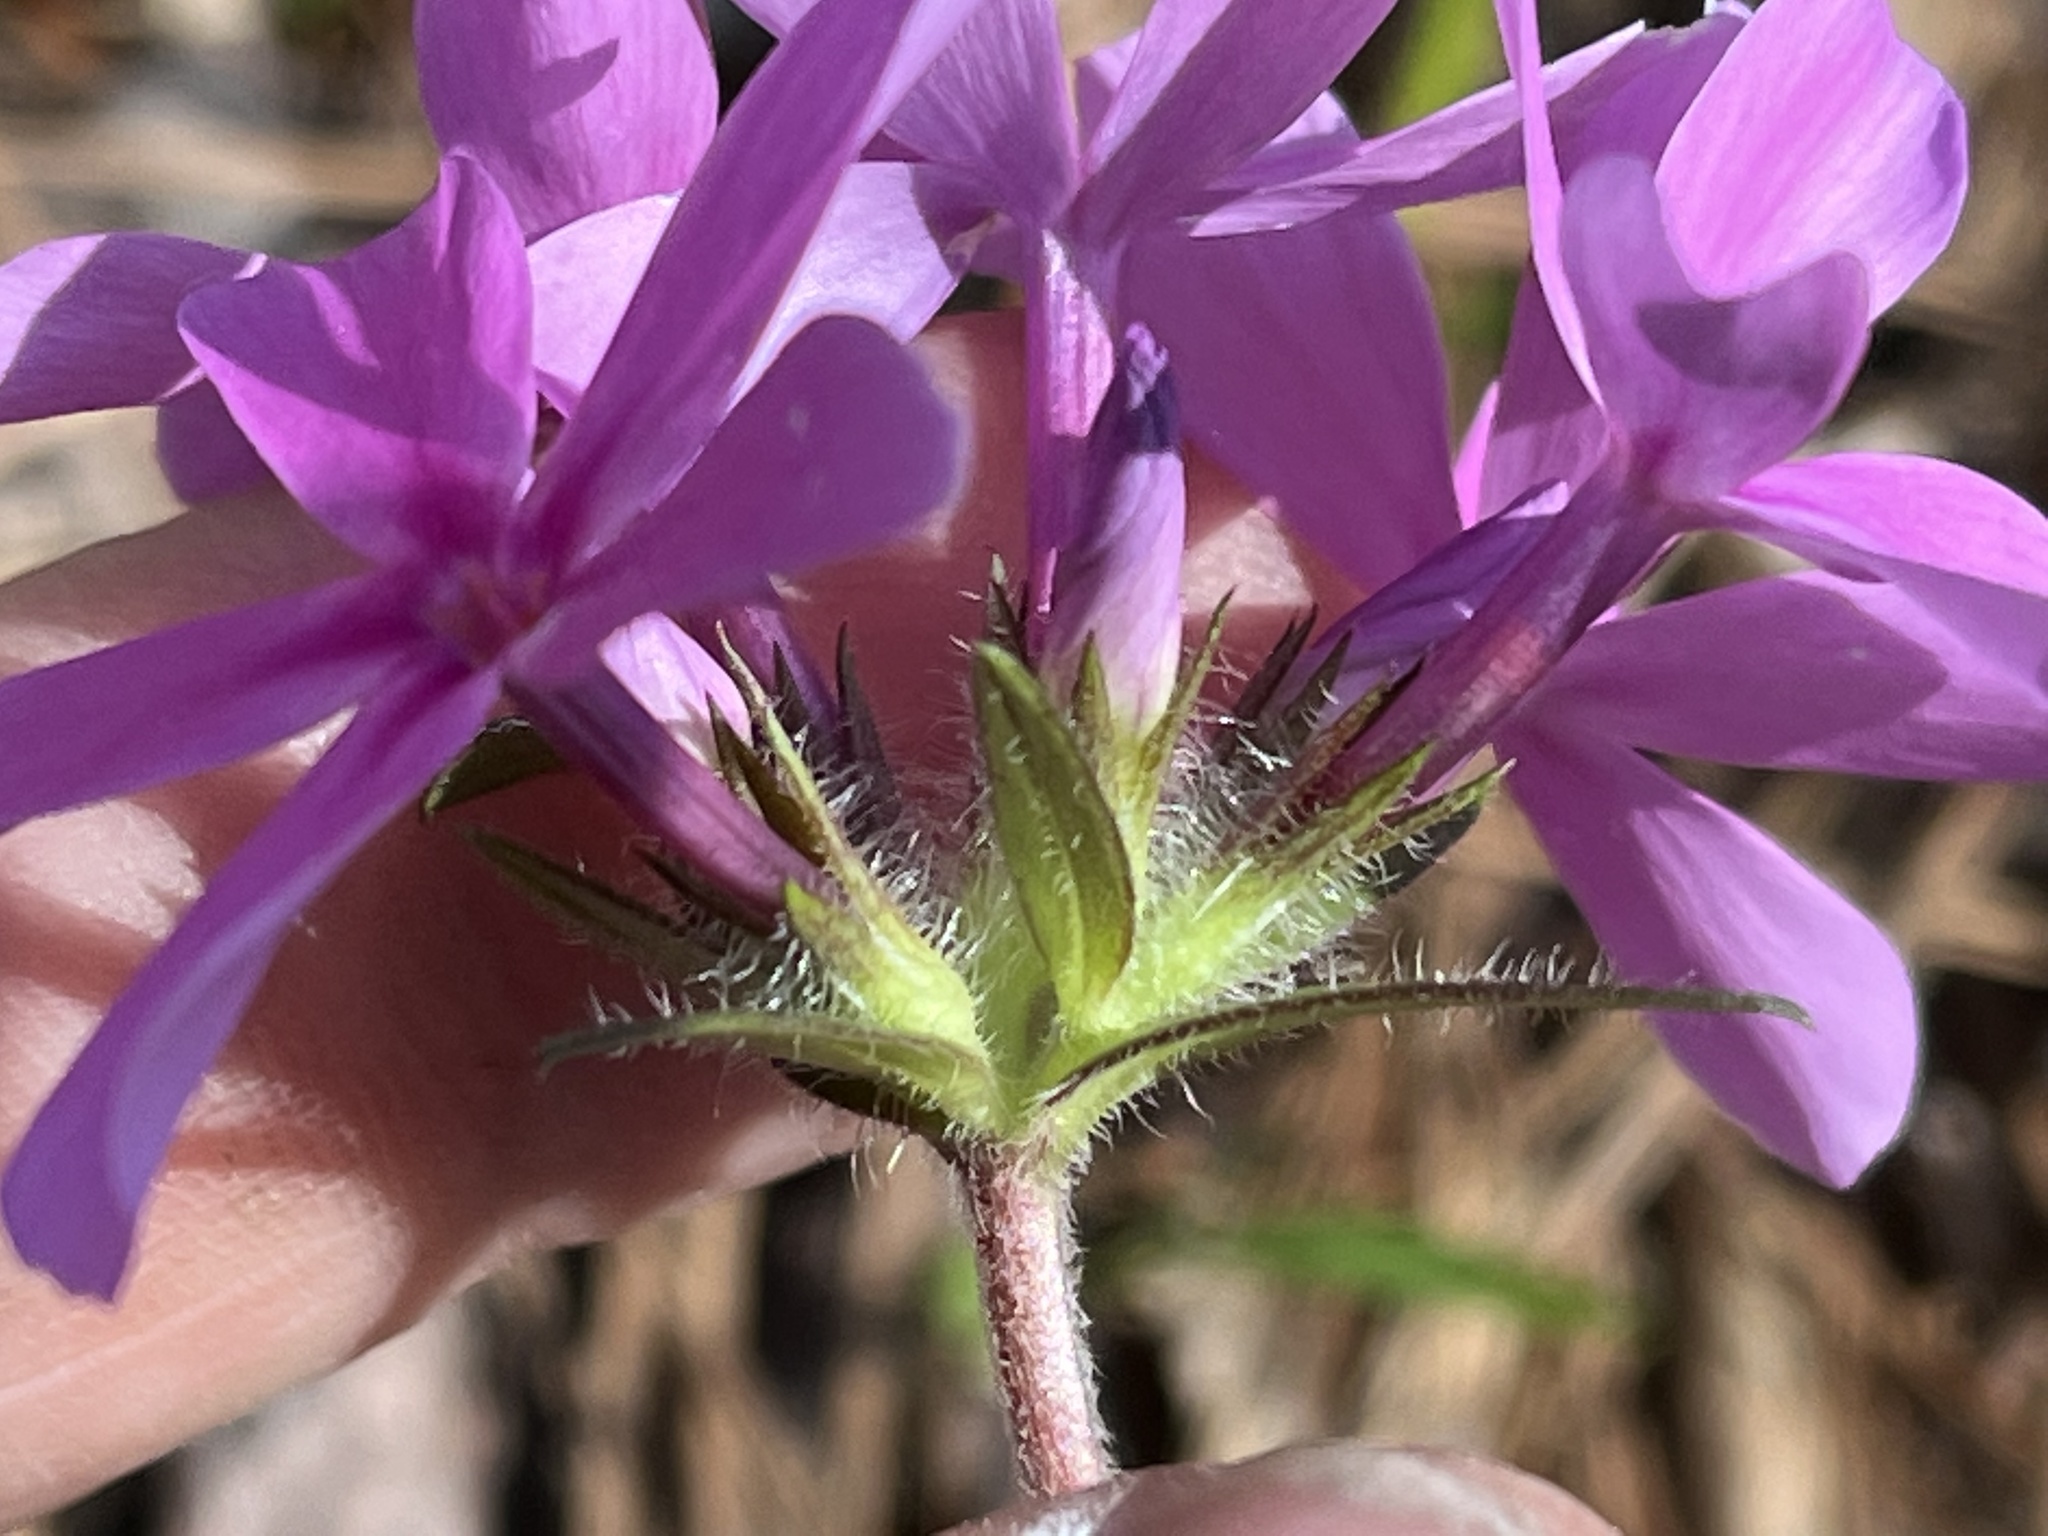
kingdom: Plantae
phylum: Tracheophyta
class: Magnoliopsida
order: Ericales
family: Polemoniaceae
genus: Phlox
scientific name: Phlox amoena
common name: Hairy phlox
